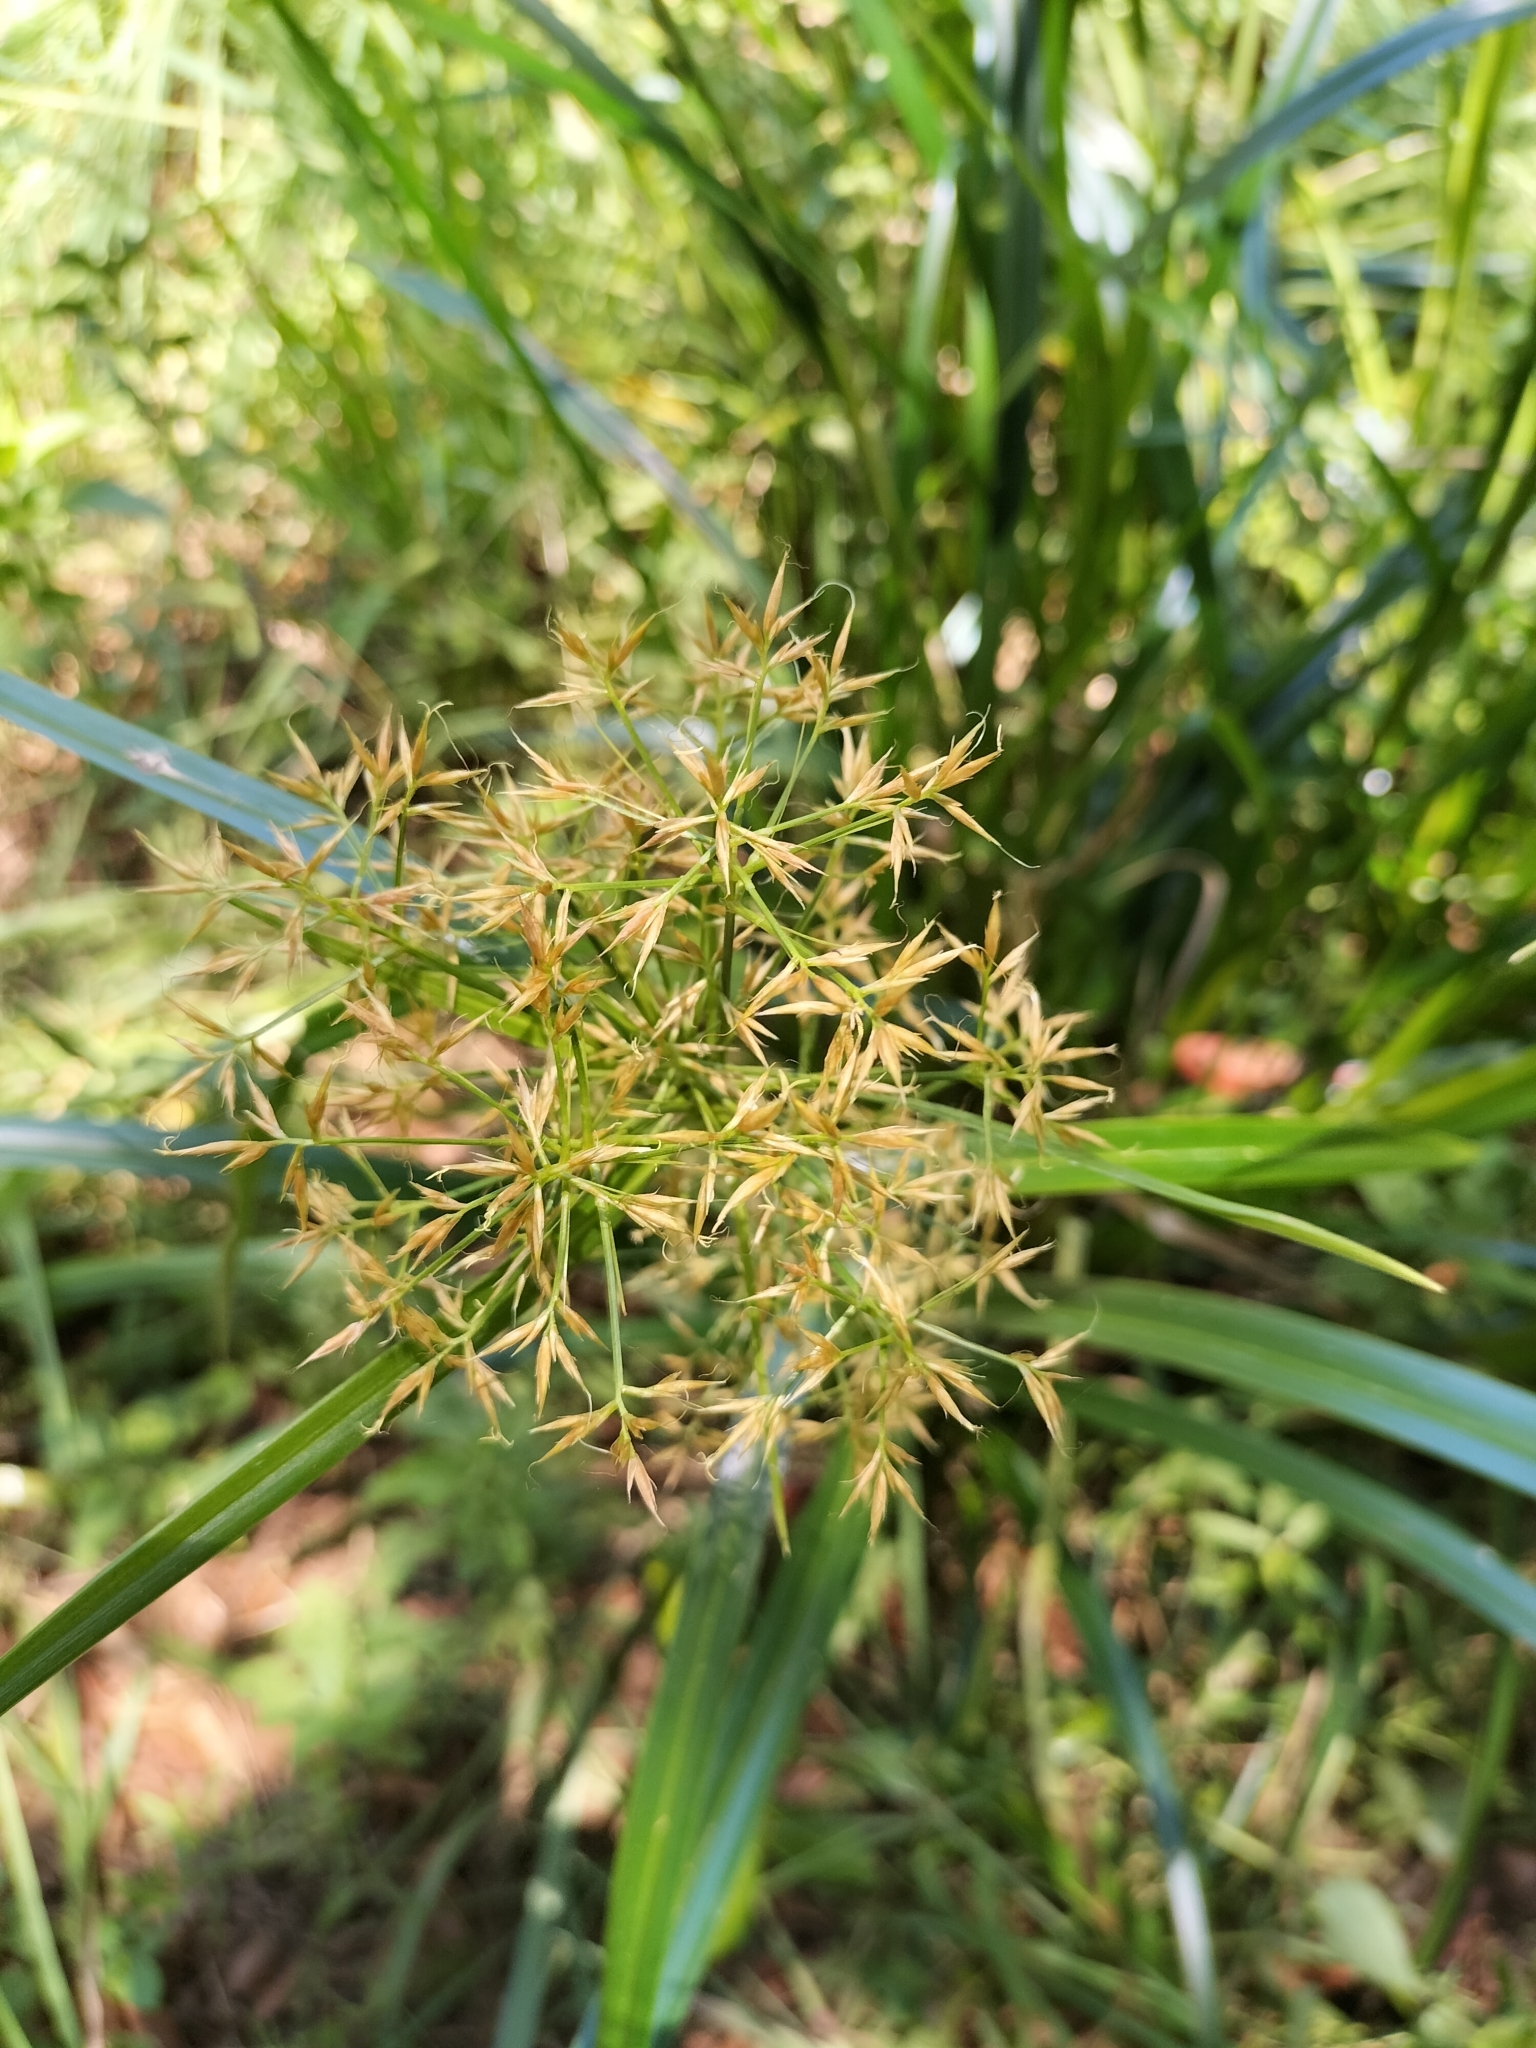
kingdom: Plantae
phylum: Tracheophyta
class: Liliopsida
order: Poales
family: Cyperaceae
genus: Rhynchospora
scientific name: Rhynchospora corymbosa
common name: Golden beak sedge
